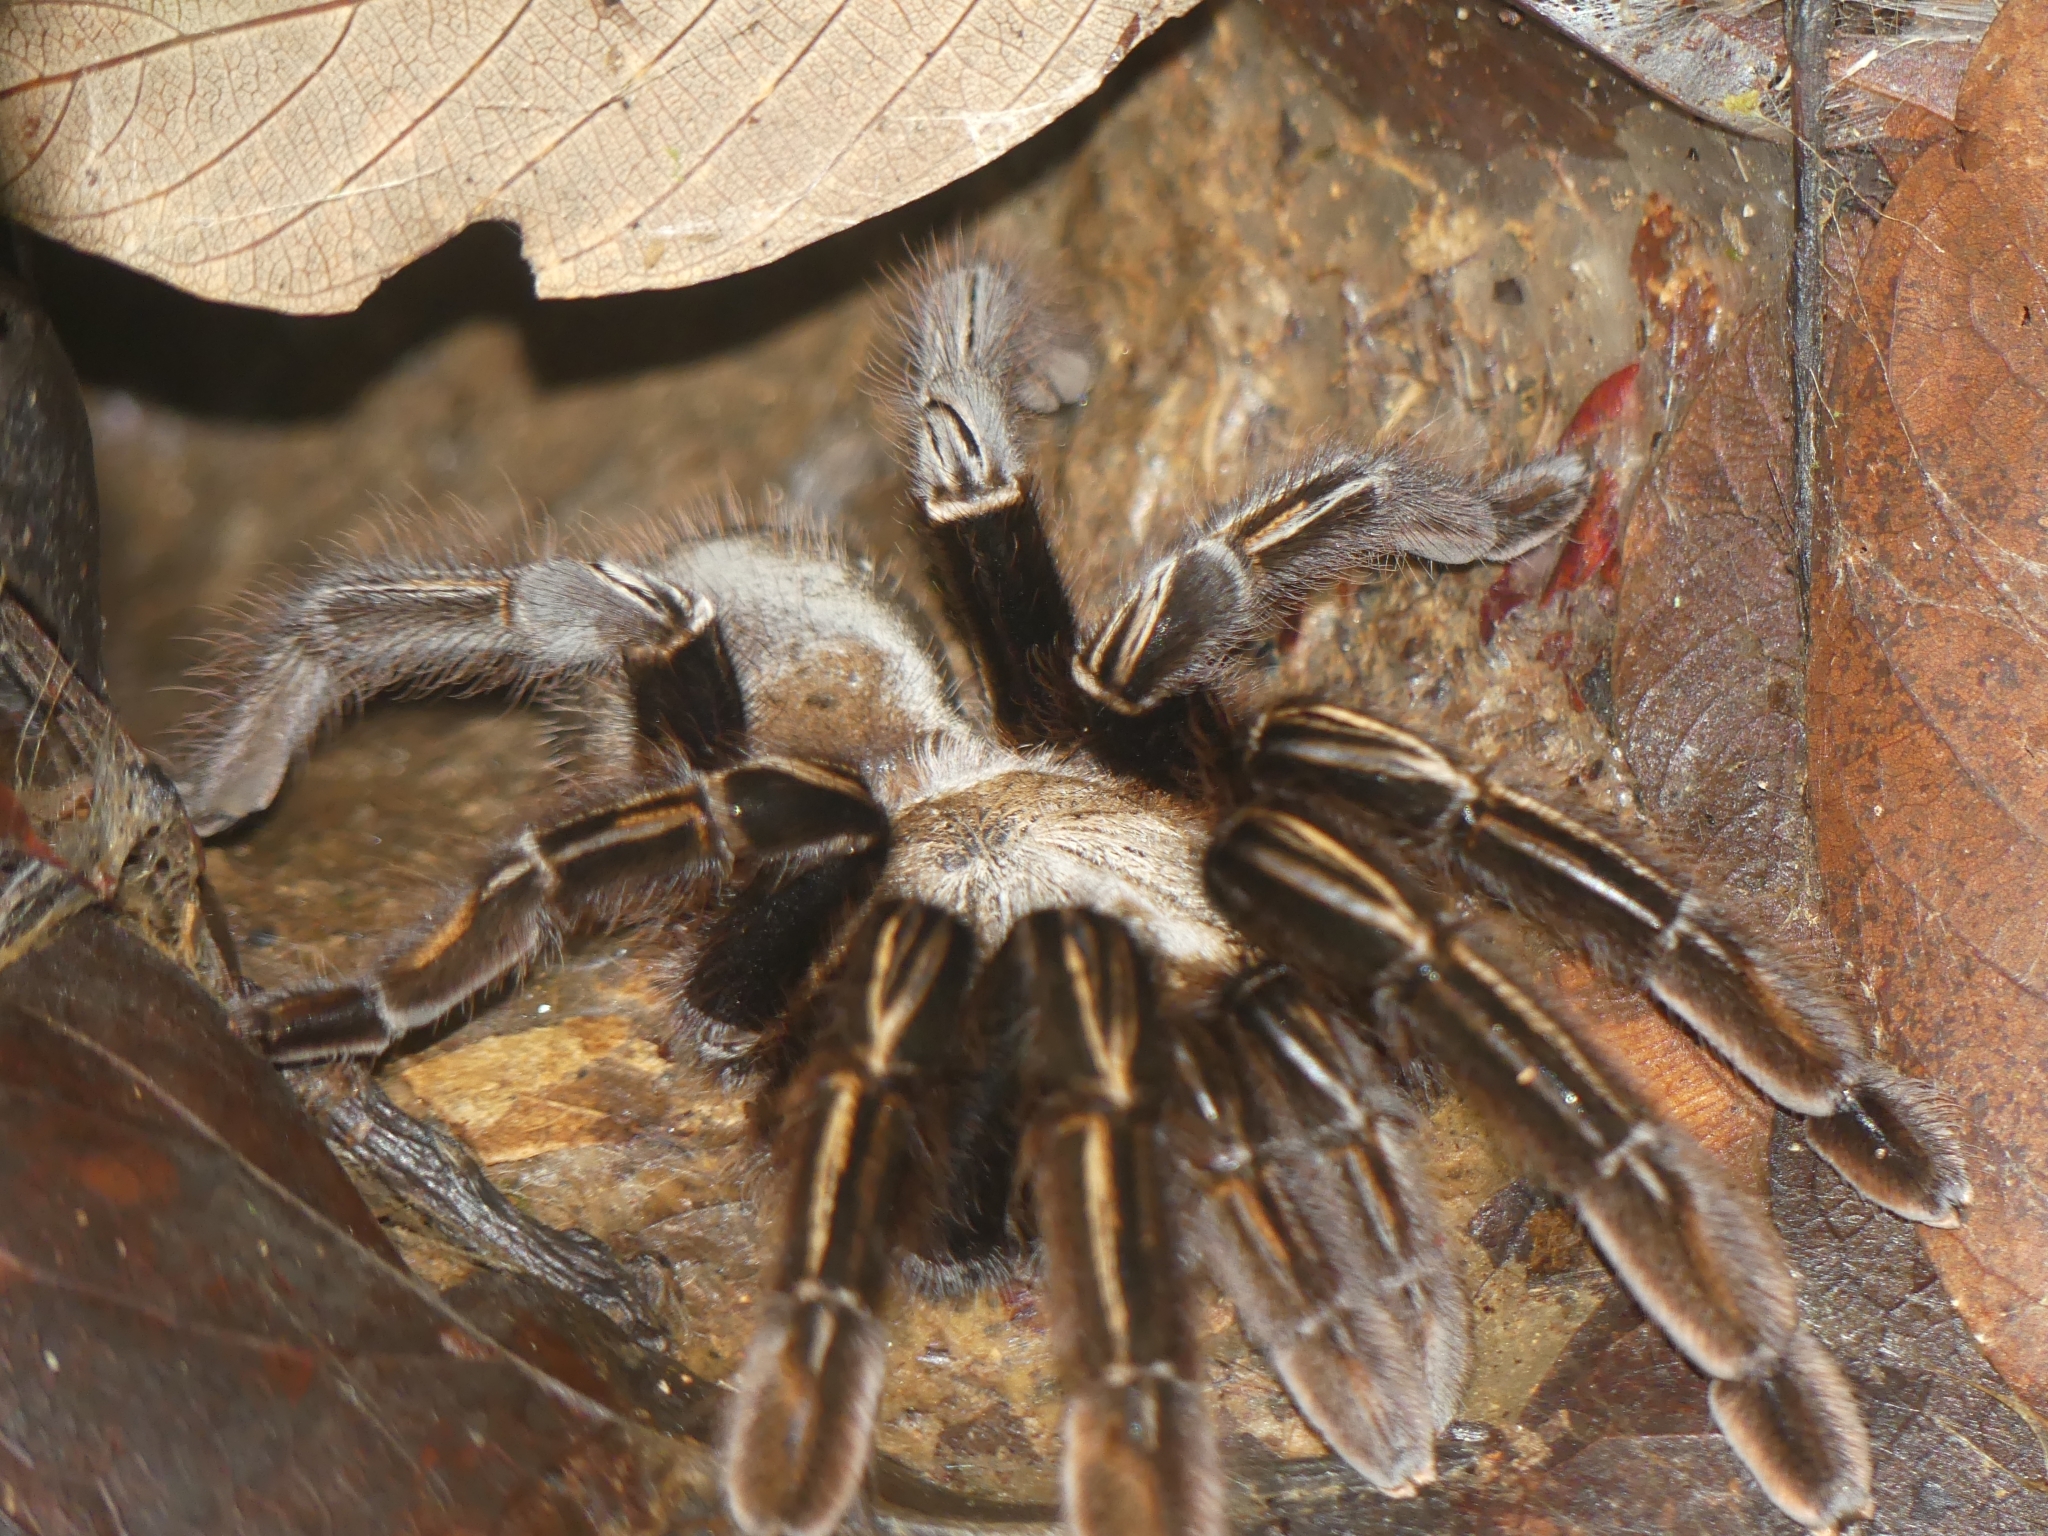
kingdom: Animalia
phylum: Arthropoda
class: Arachnida
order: Araneae
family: Theraphosidae
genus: Ephebopus
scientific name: Ephebopus murinus
